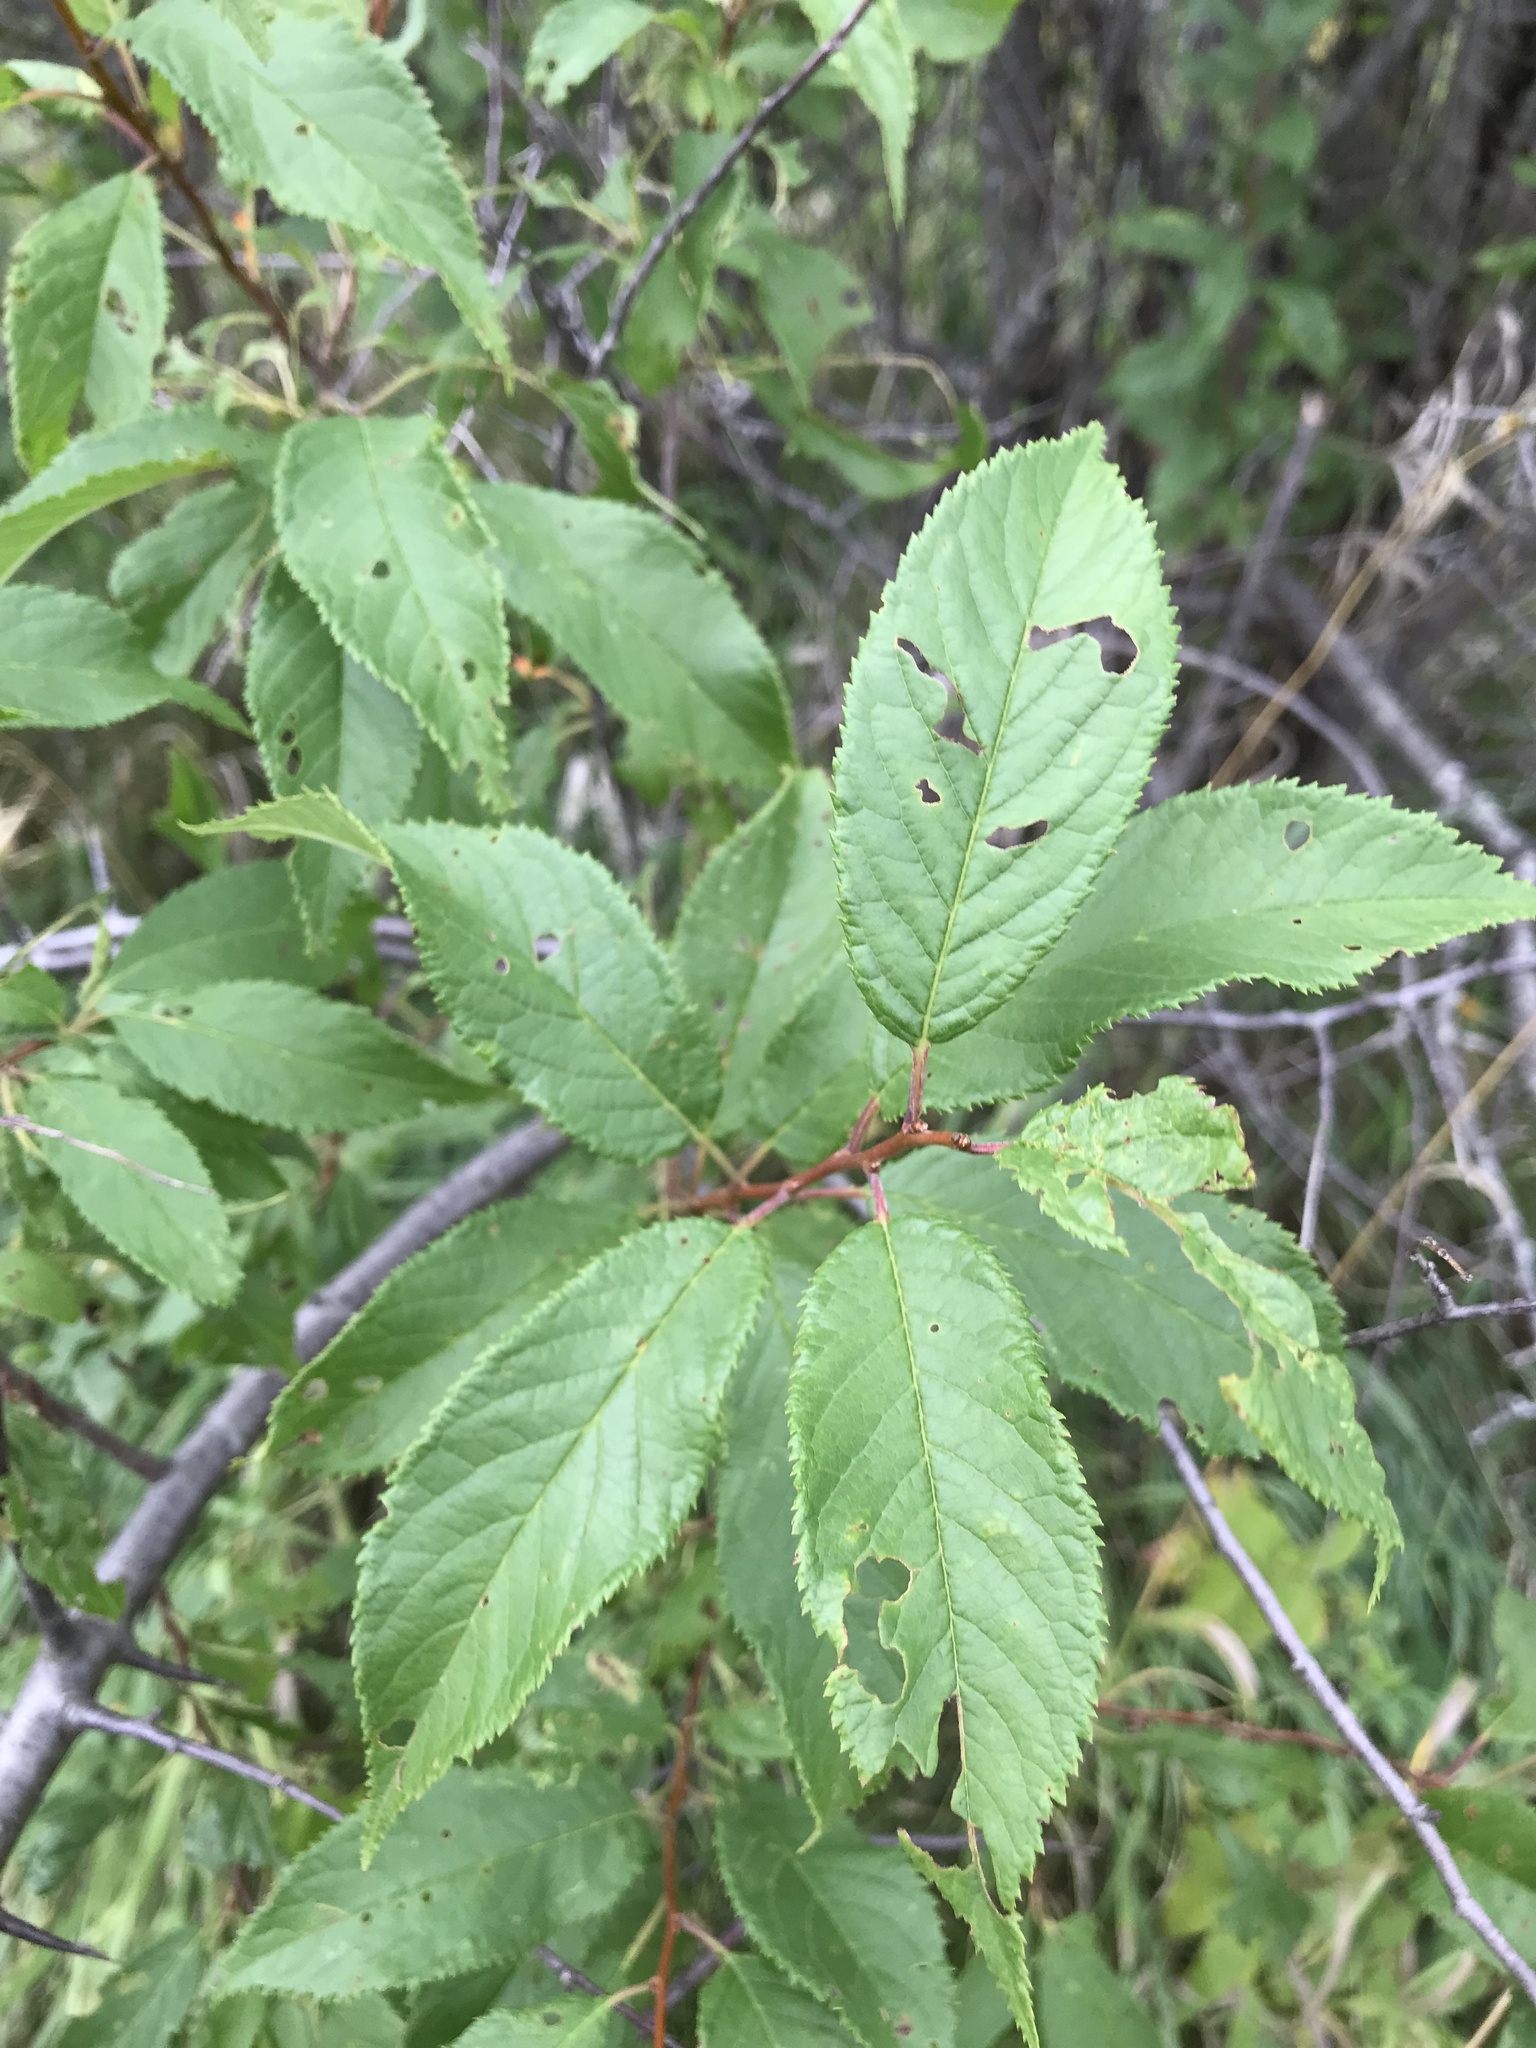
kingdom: Plantae
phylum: Tracheophyta
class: Magnoliopsida
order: Rosales
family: Rosaceae
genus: Prunus
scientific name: Prunus americana
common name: American plum
